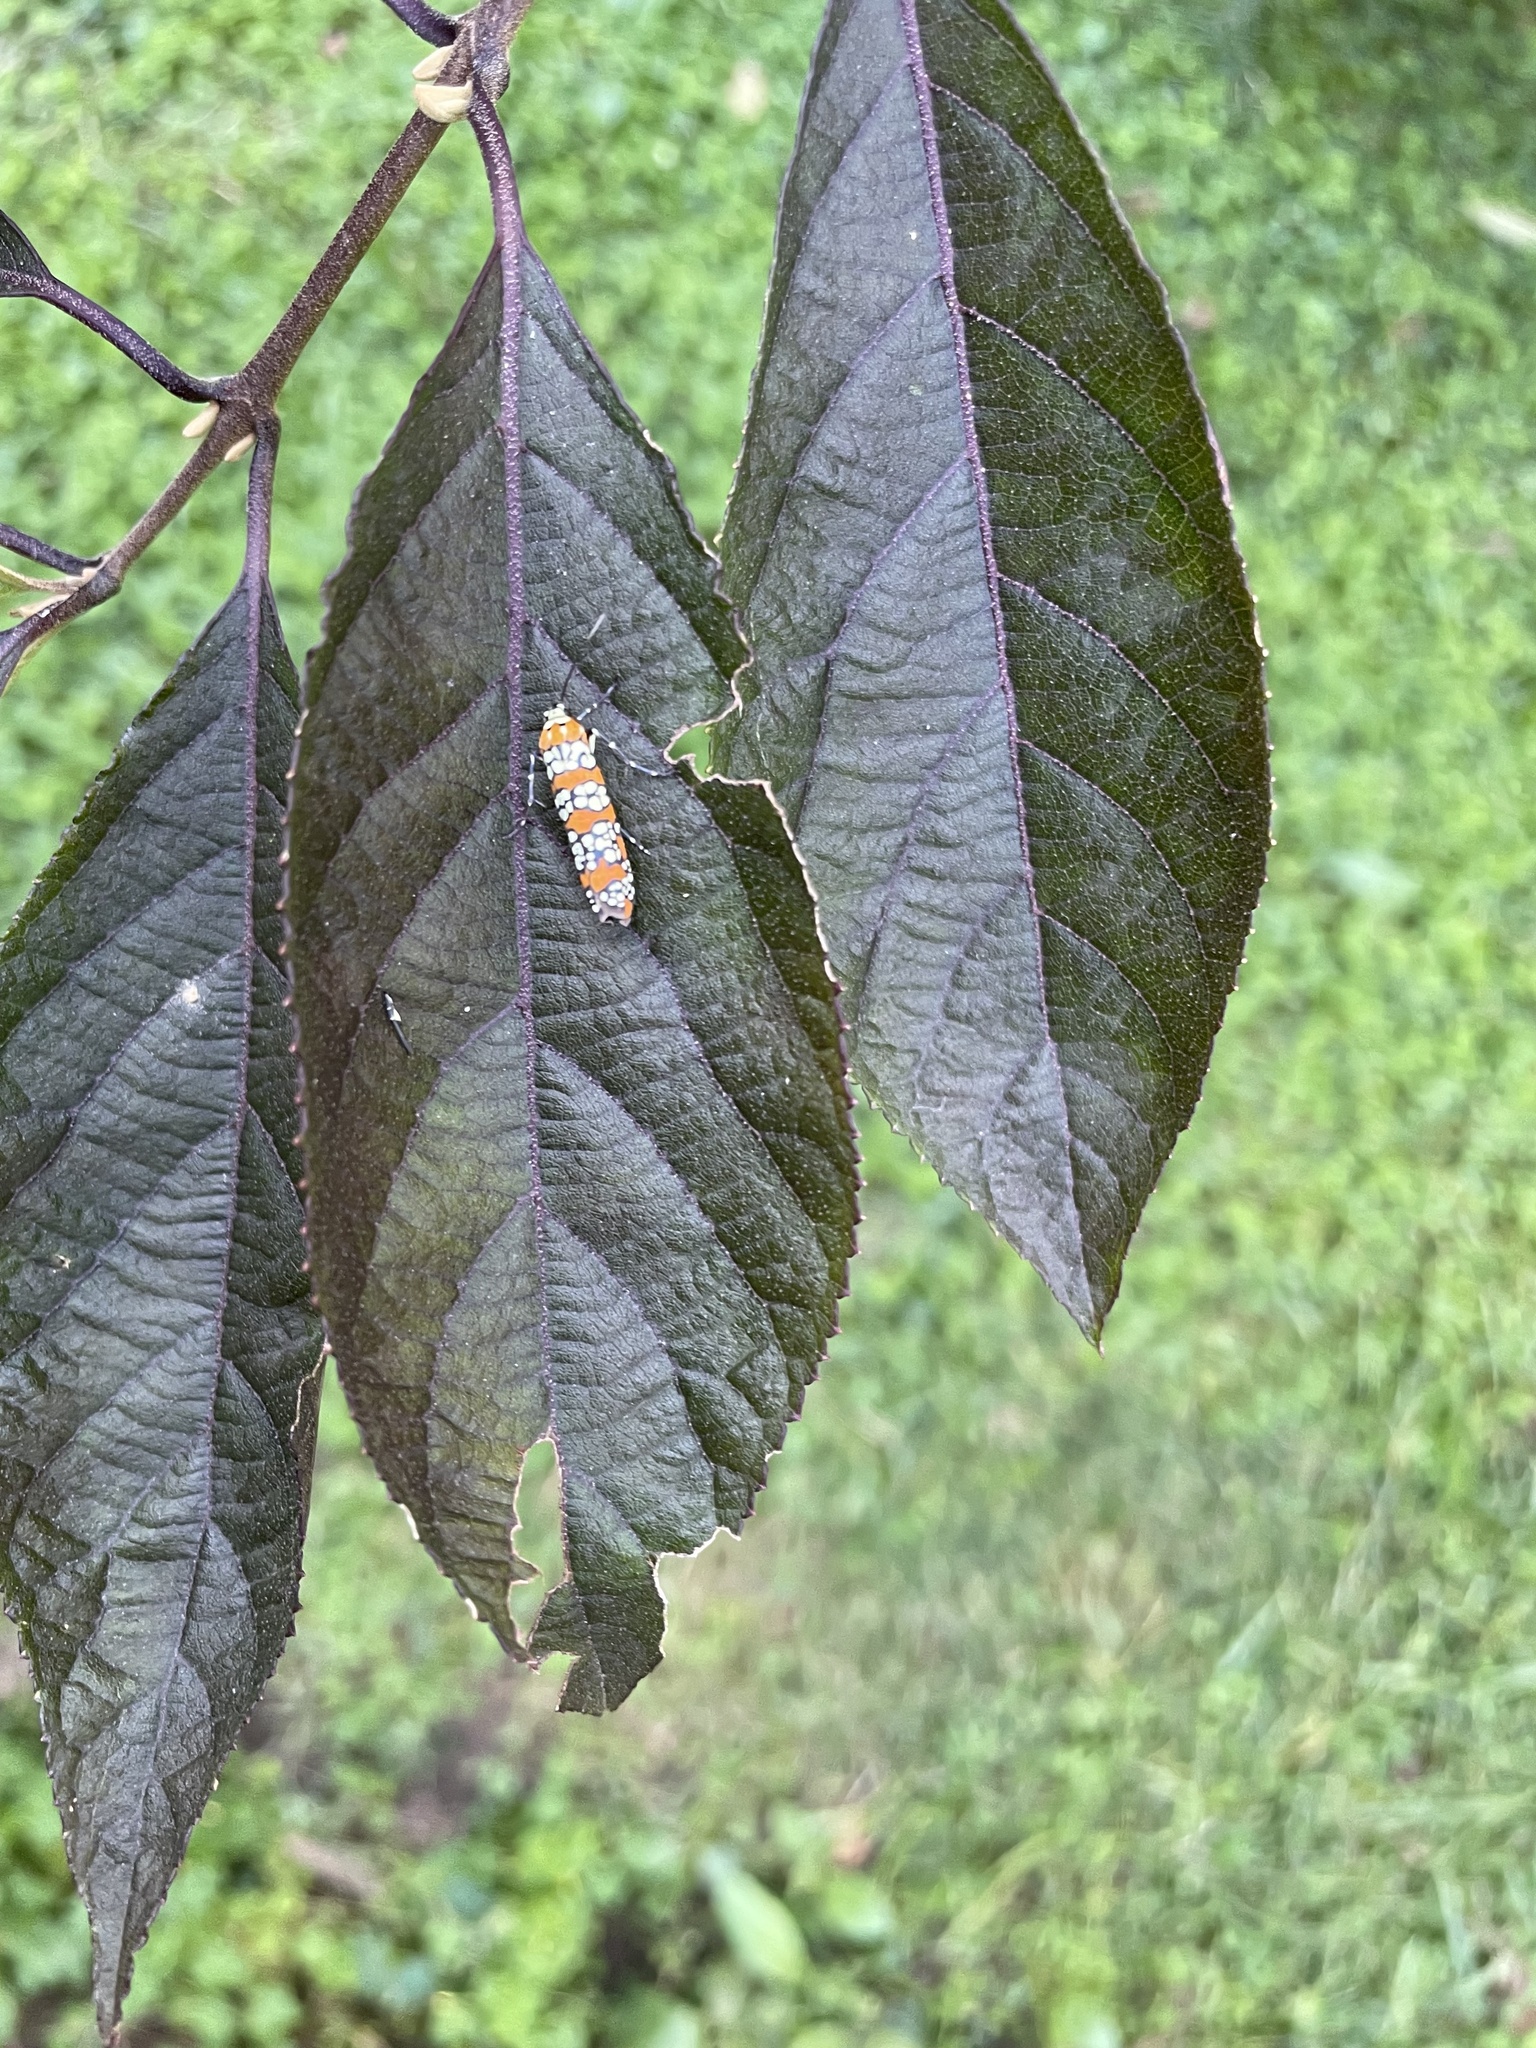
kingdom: Animalia
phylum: Arthropoda
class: Insecta
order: Lepidoptera
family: Attevidae
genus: Atteva
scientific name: Atteva punctella
